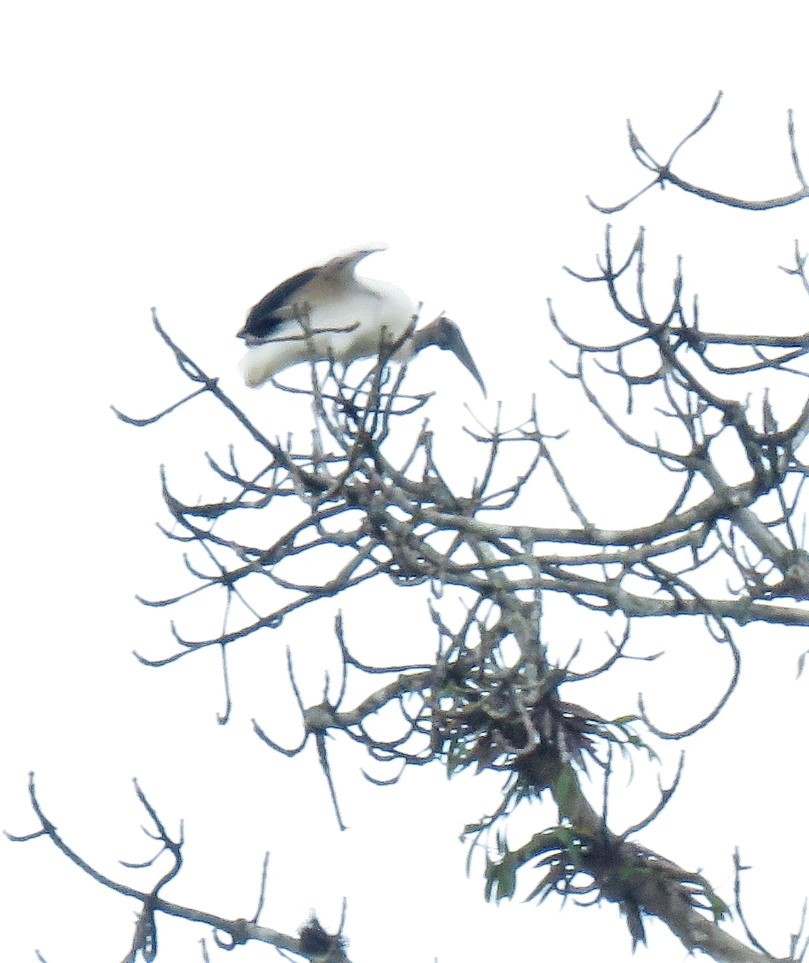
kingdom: Animalia
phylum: Chordata
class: Aves
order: Ciconiiformes
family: Ciconiidae
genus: Mycteria
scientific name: Mycteria americana
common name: Wood stork
